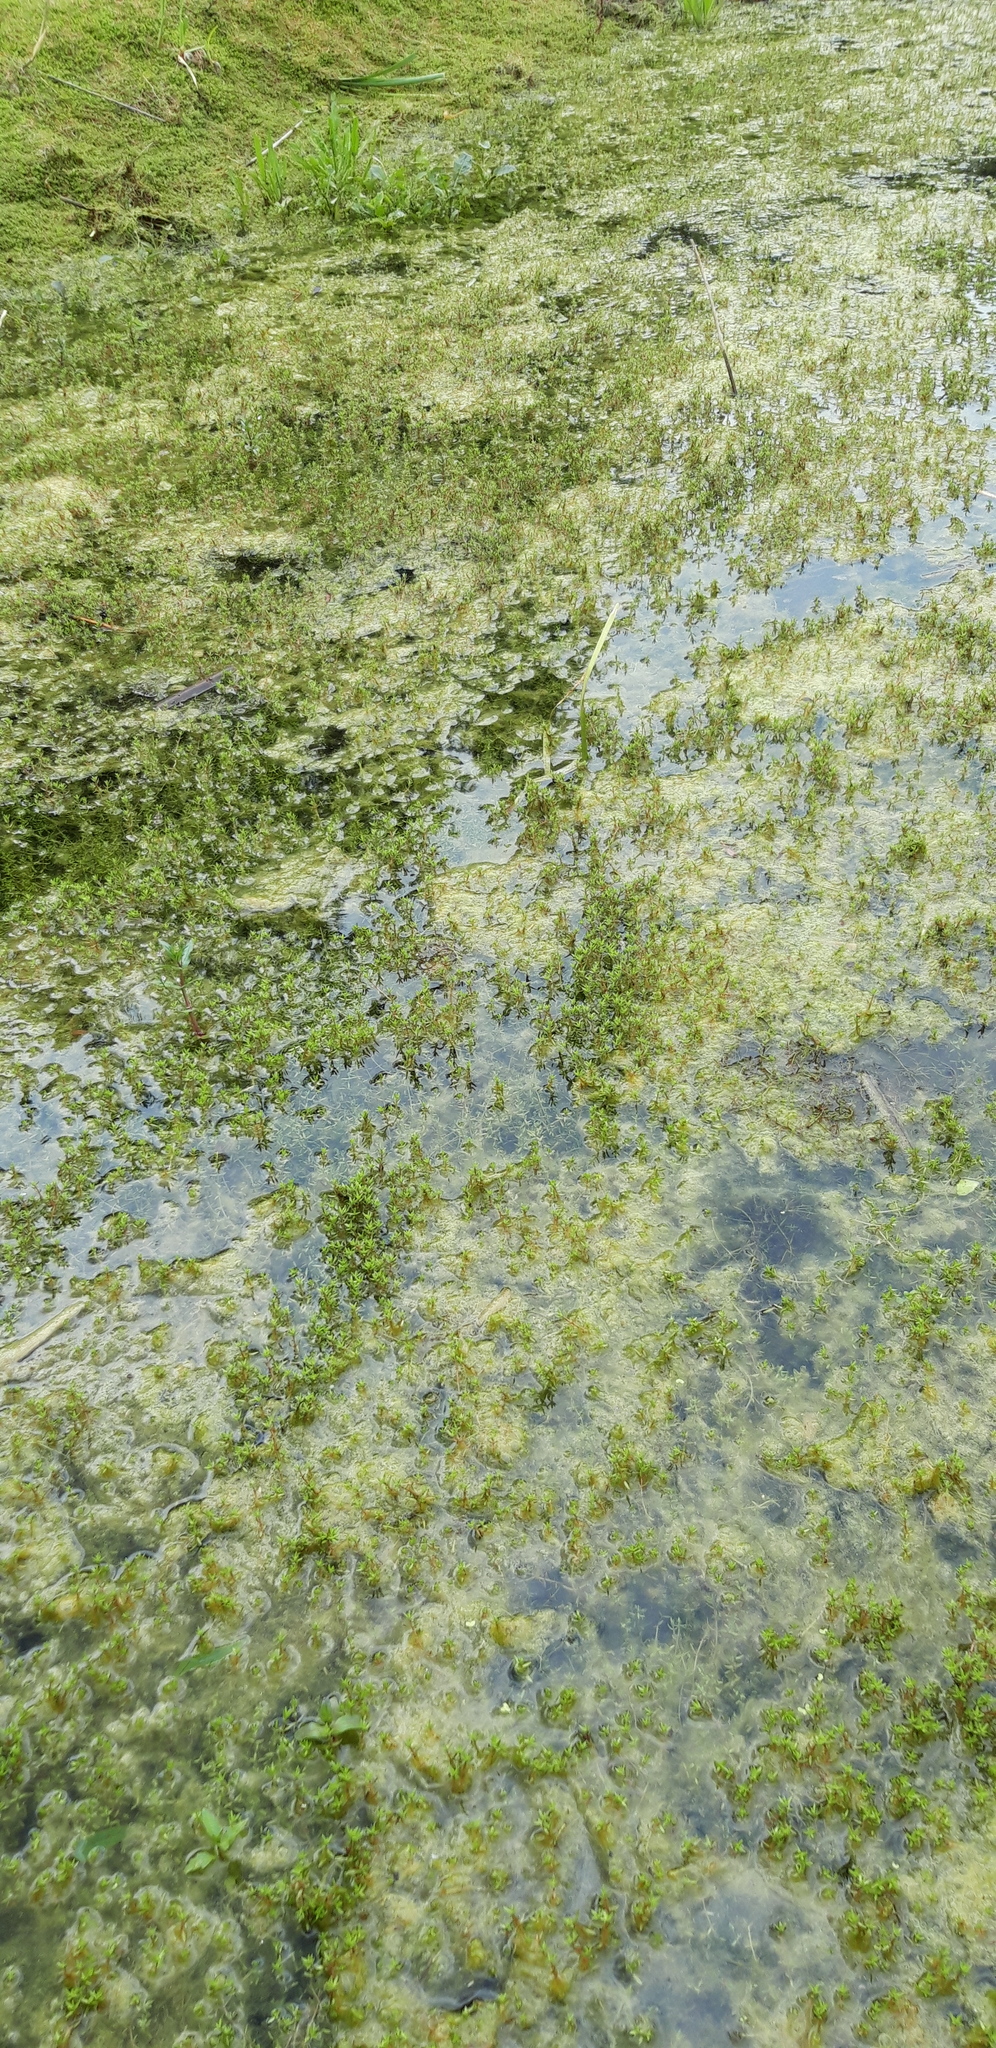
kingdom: Plantae
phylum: Tracheophyta
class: Magnoliopsida
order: Saxifragales
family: Crassulaceae
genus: Crassula
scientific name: Crassula helmsii
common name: New zealand pigmyweed
